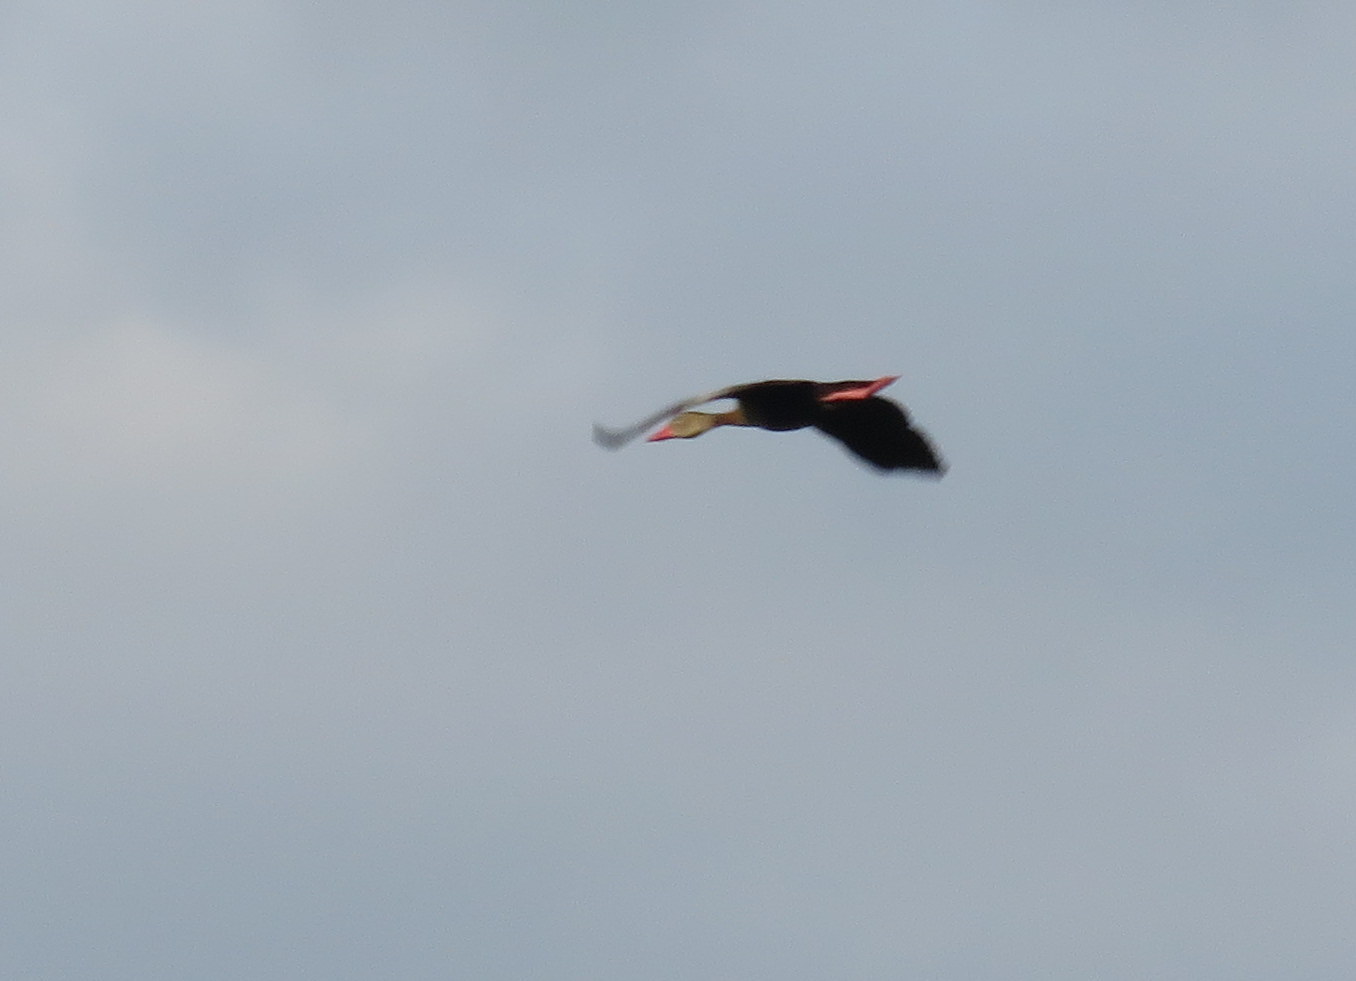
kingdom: Animalia
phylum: Chordata
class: Aves
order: Anseriformes
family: Anatidae
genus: Dendrocygna
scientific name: Dendrocygna autumnalis
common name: Black-bellied whistling duck
